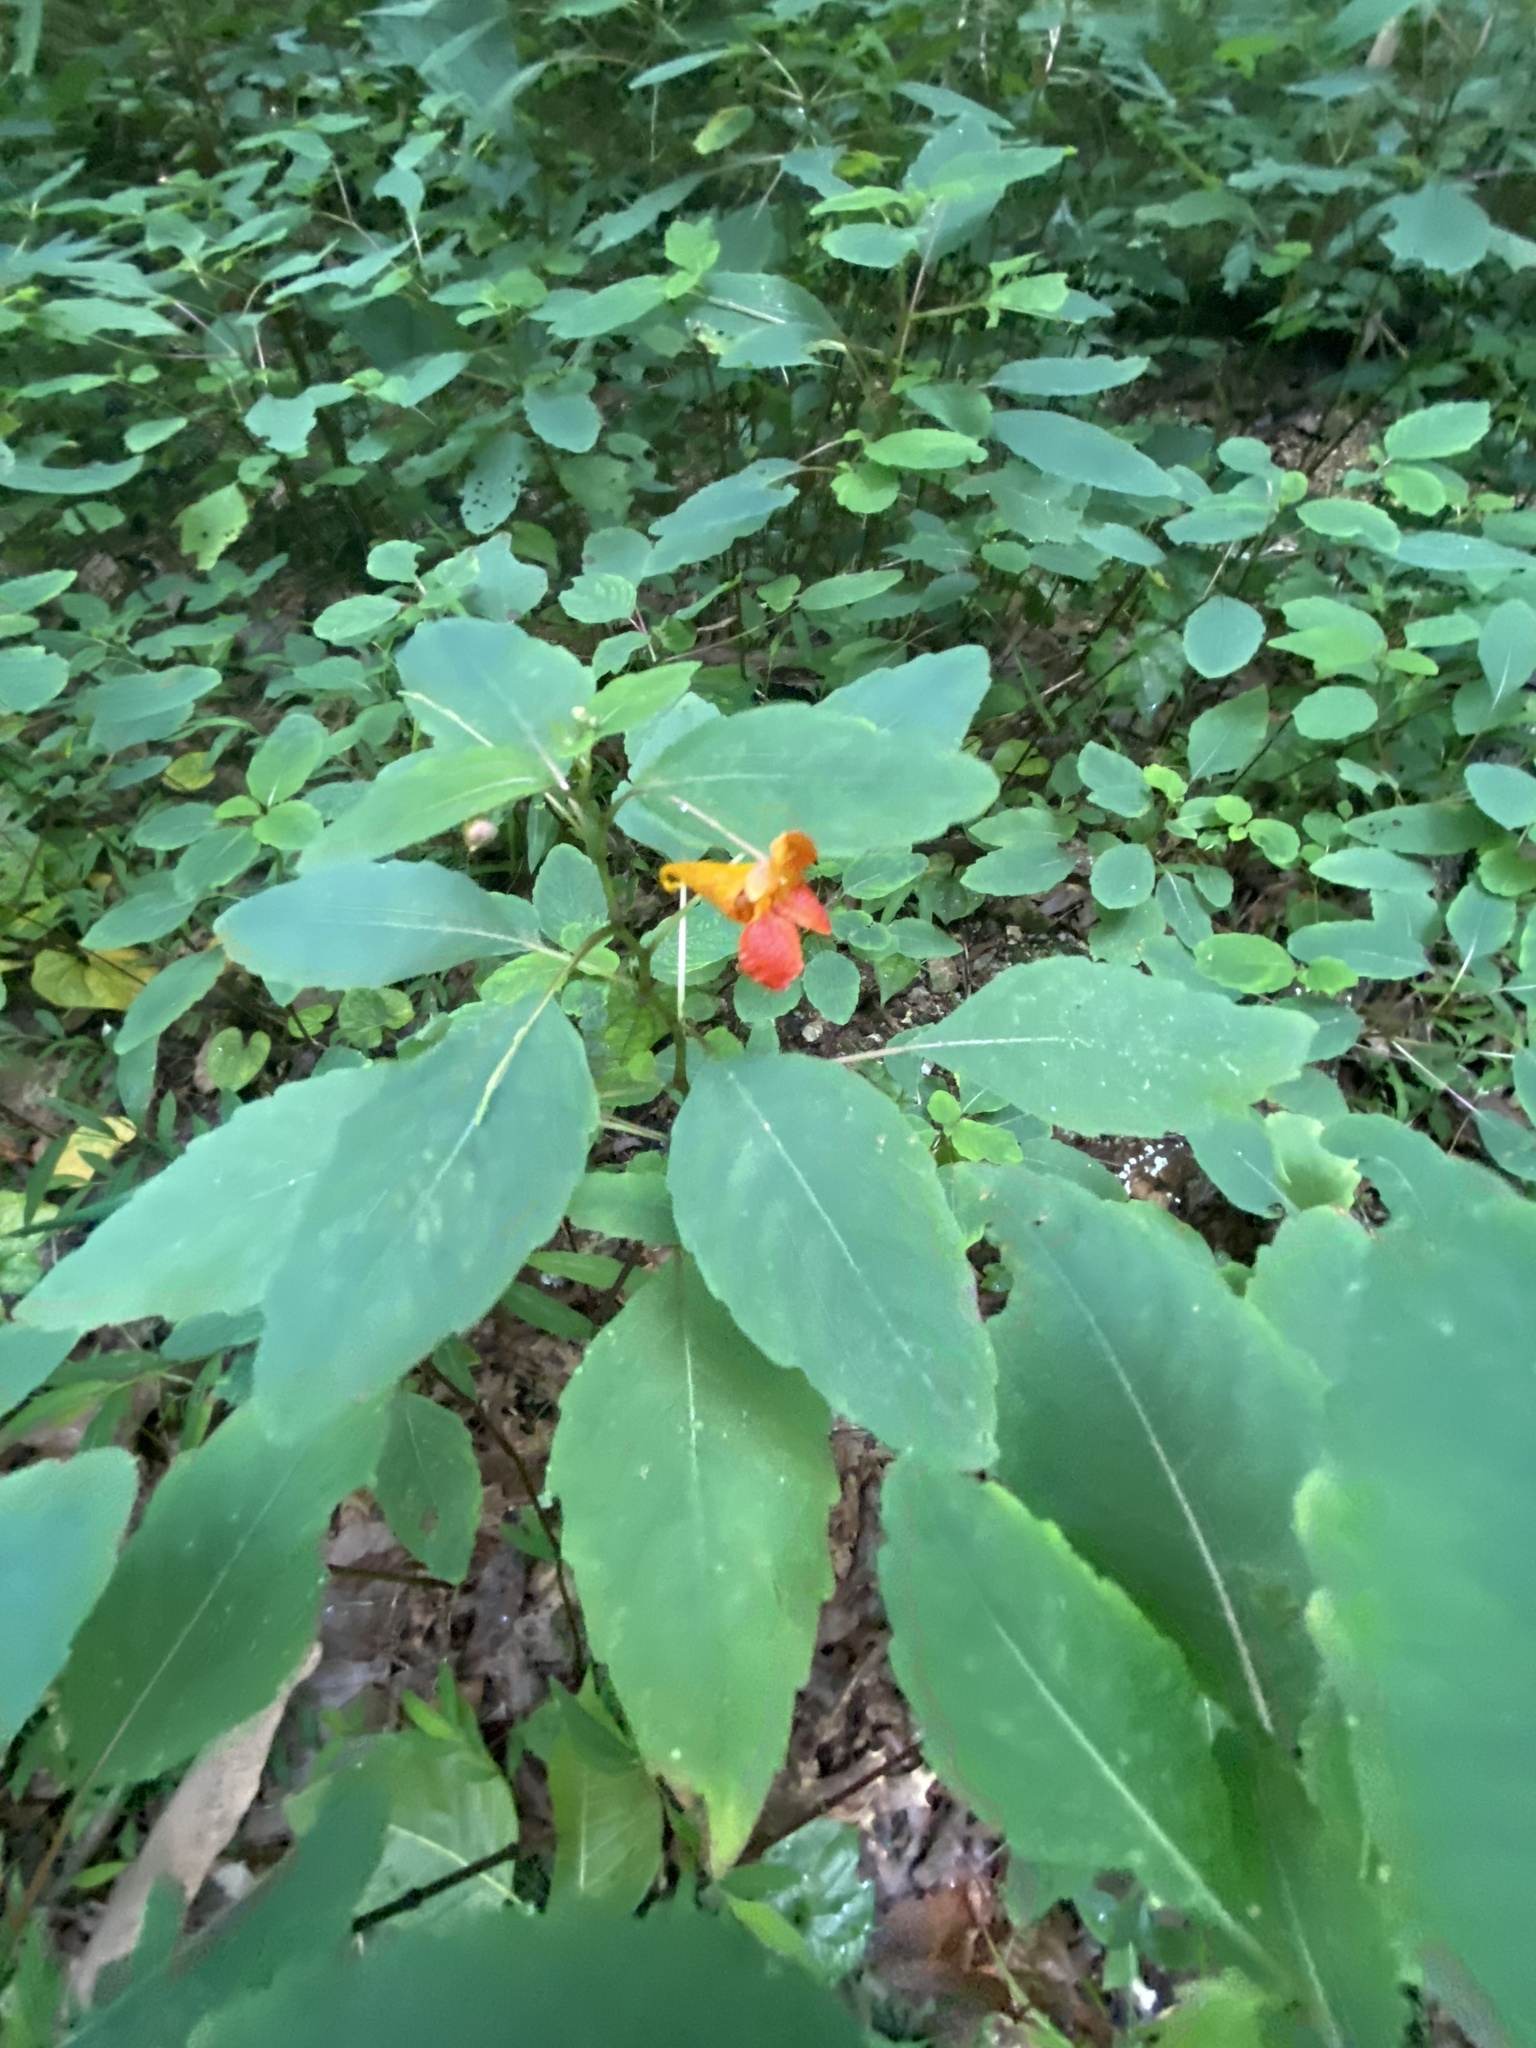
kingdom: Plantae
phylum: Tracheophyta
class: Magnoliopsida
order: Ericales
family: Balsaminaceae
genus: Impatiens
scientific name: Impatiens capensis
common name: Orange balsam
